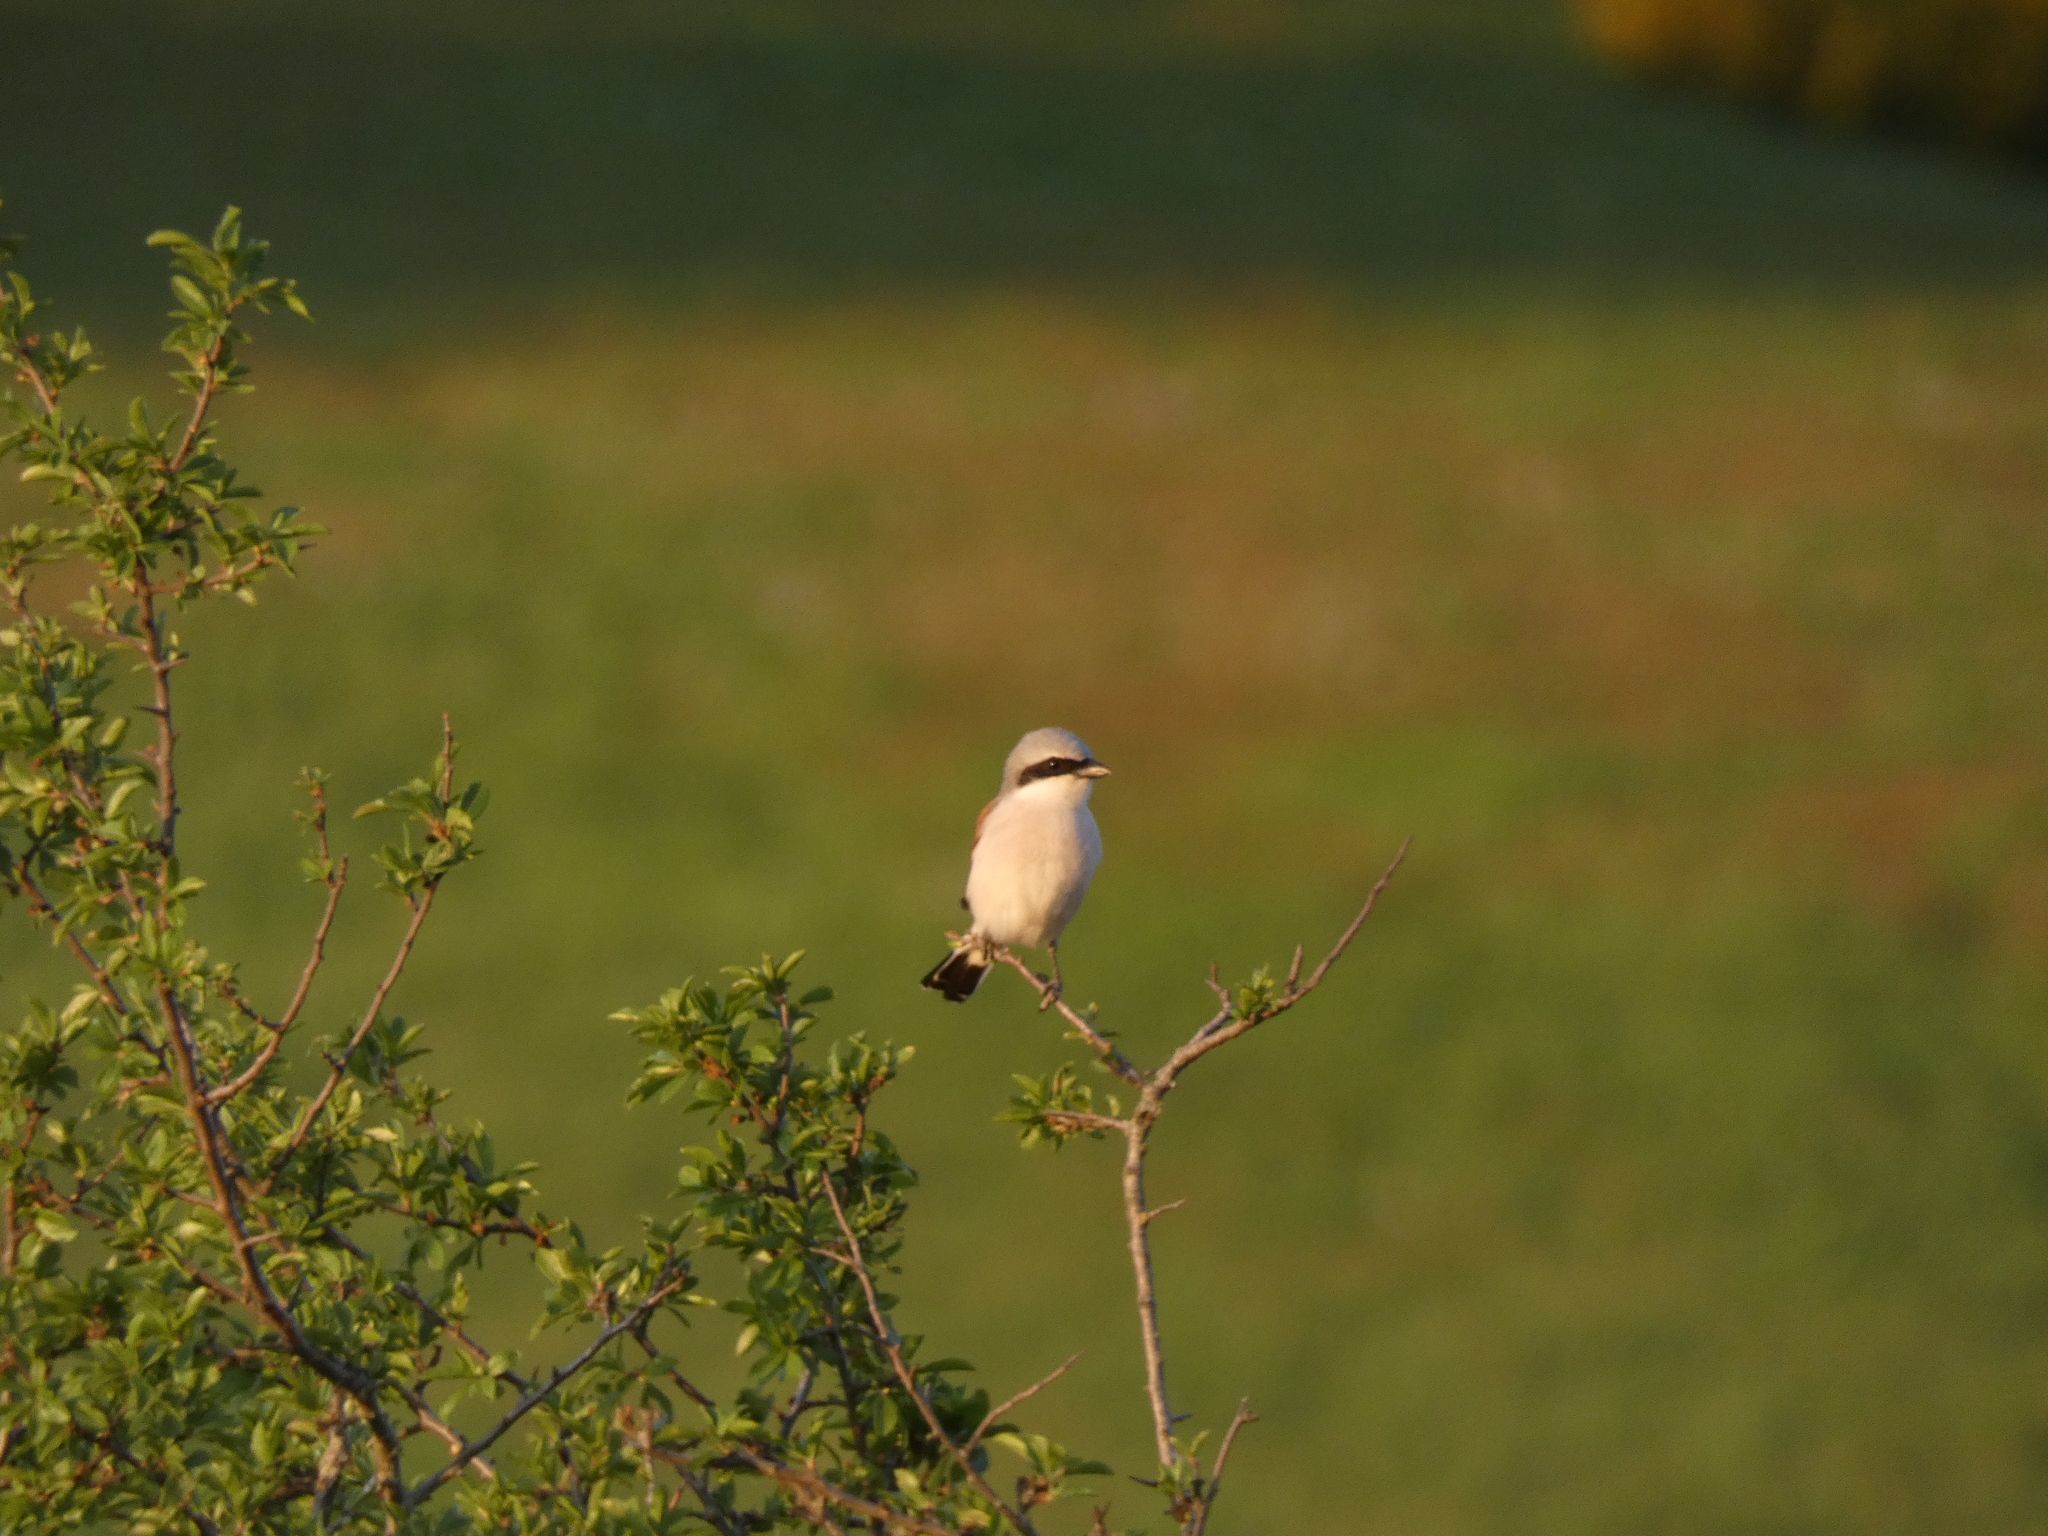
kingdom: Animalia
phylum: Chordata
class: Aves
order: Passeriformes
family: Laniidae
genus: Lanius
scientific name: Lanius collurio
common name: Red-backed shrike
